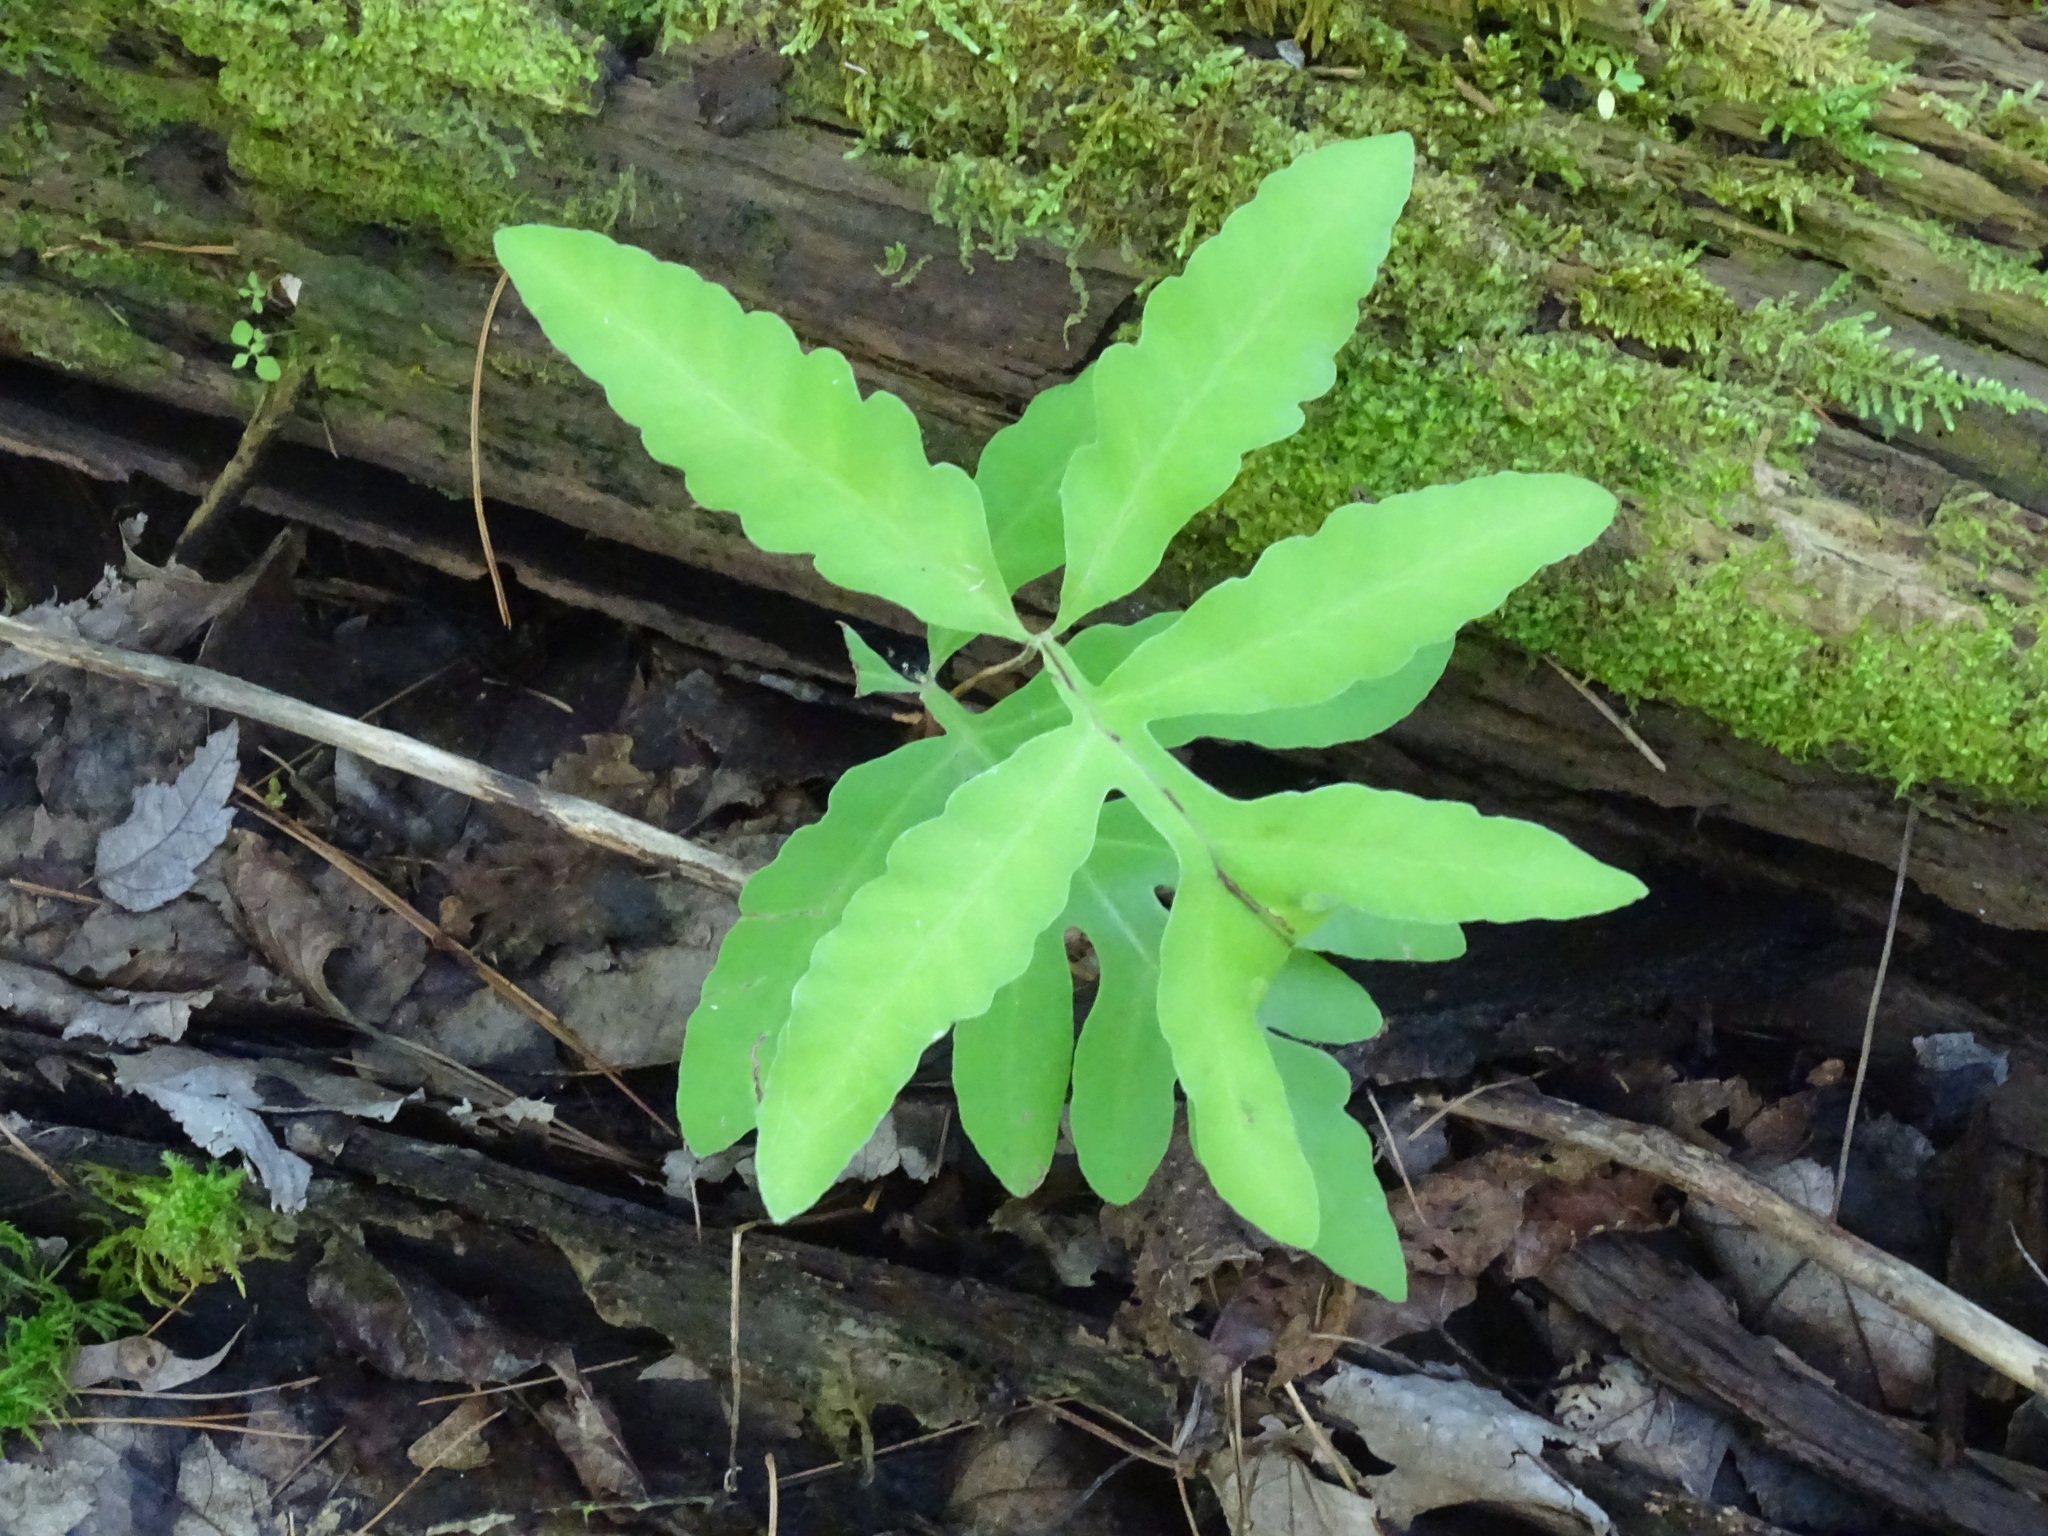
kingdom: Plantae
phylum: Tracheophyta
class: Polypodiopsida
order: Polypodiales
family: Onocleaceae
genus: Onoclea
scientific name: Onoclea sensibilis
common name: Sensitive fern
